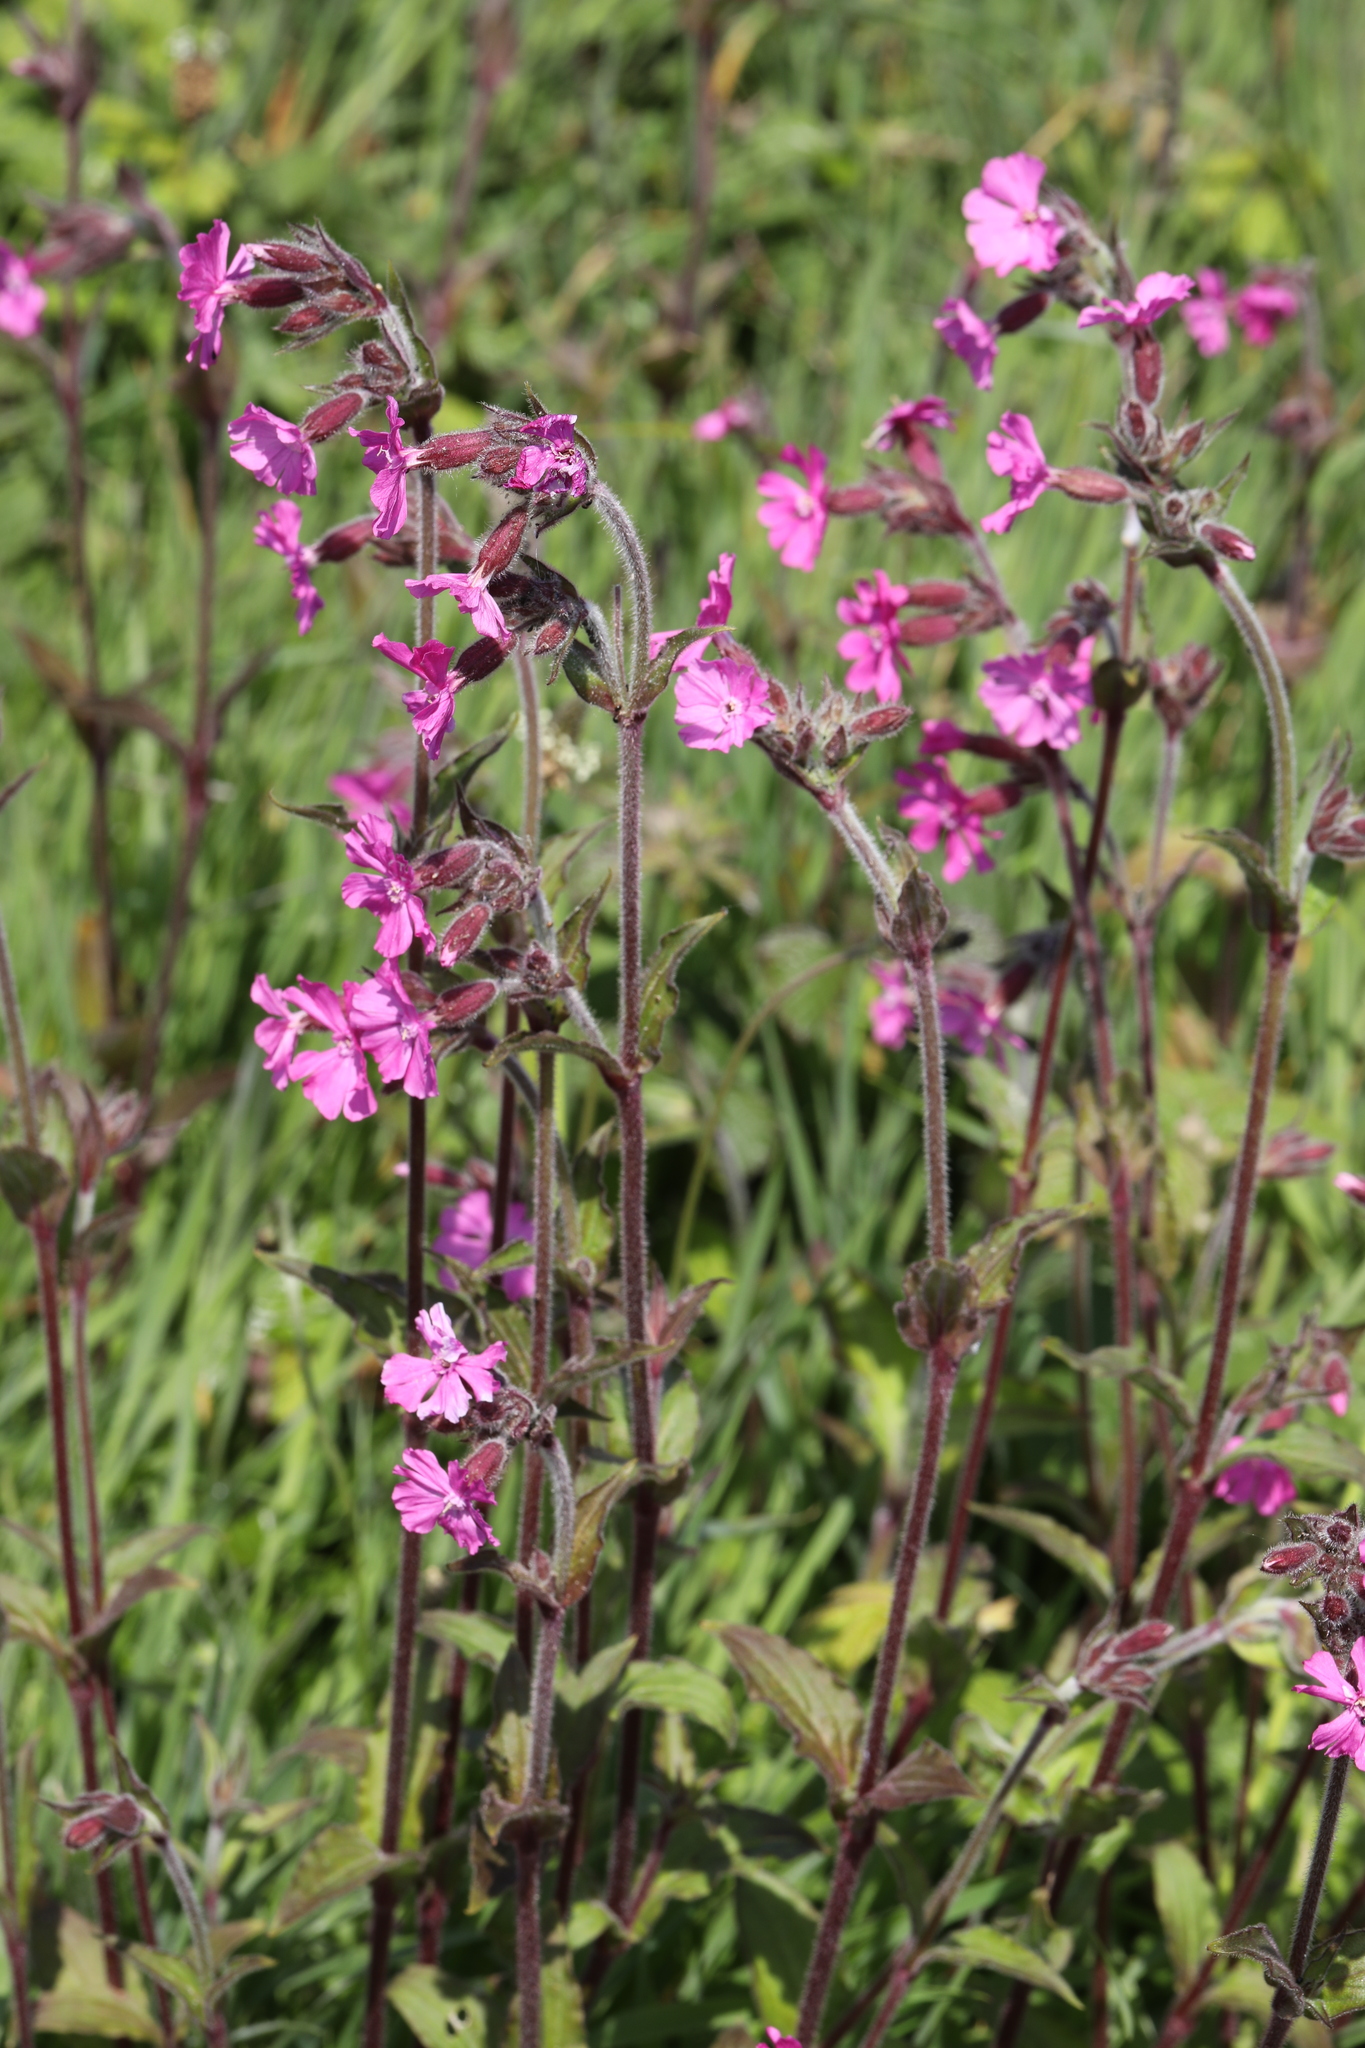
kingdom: Plantae
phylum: Tracheophyta
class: Magnoliopsida
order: Caryophyllales
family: Caryophyllaceae
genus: Silene
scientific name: Silene dioica
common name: Red campion
